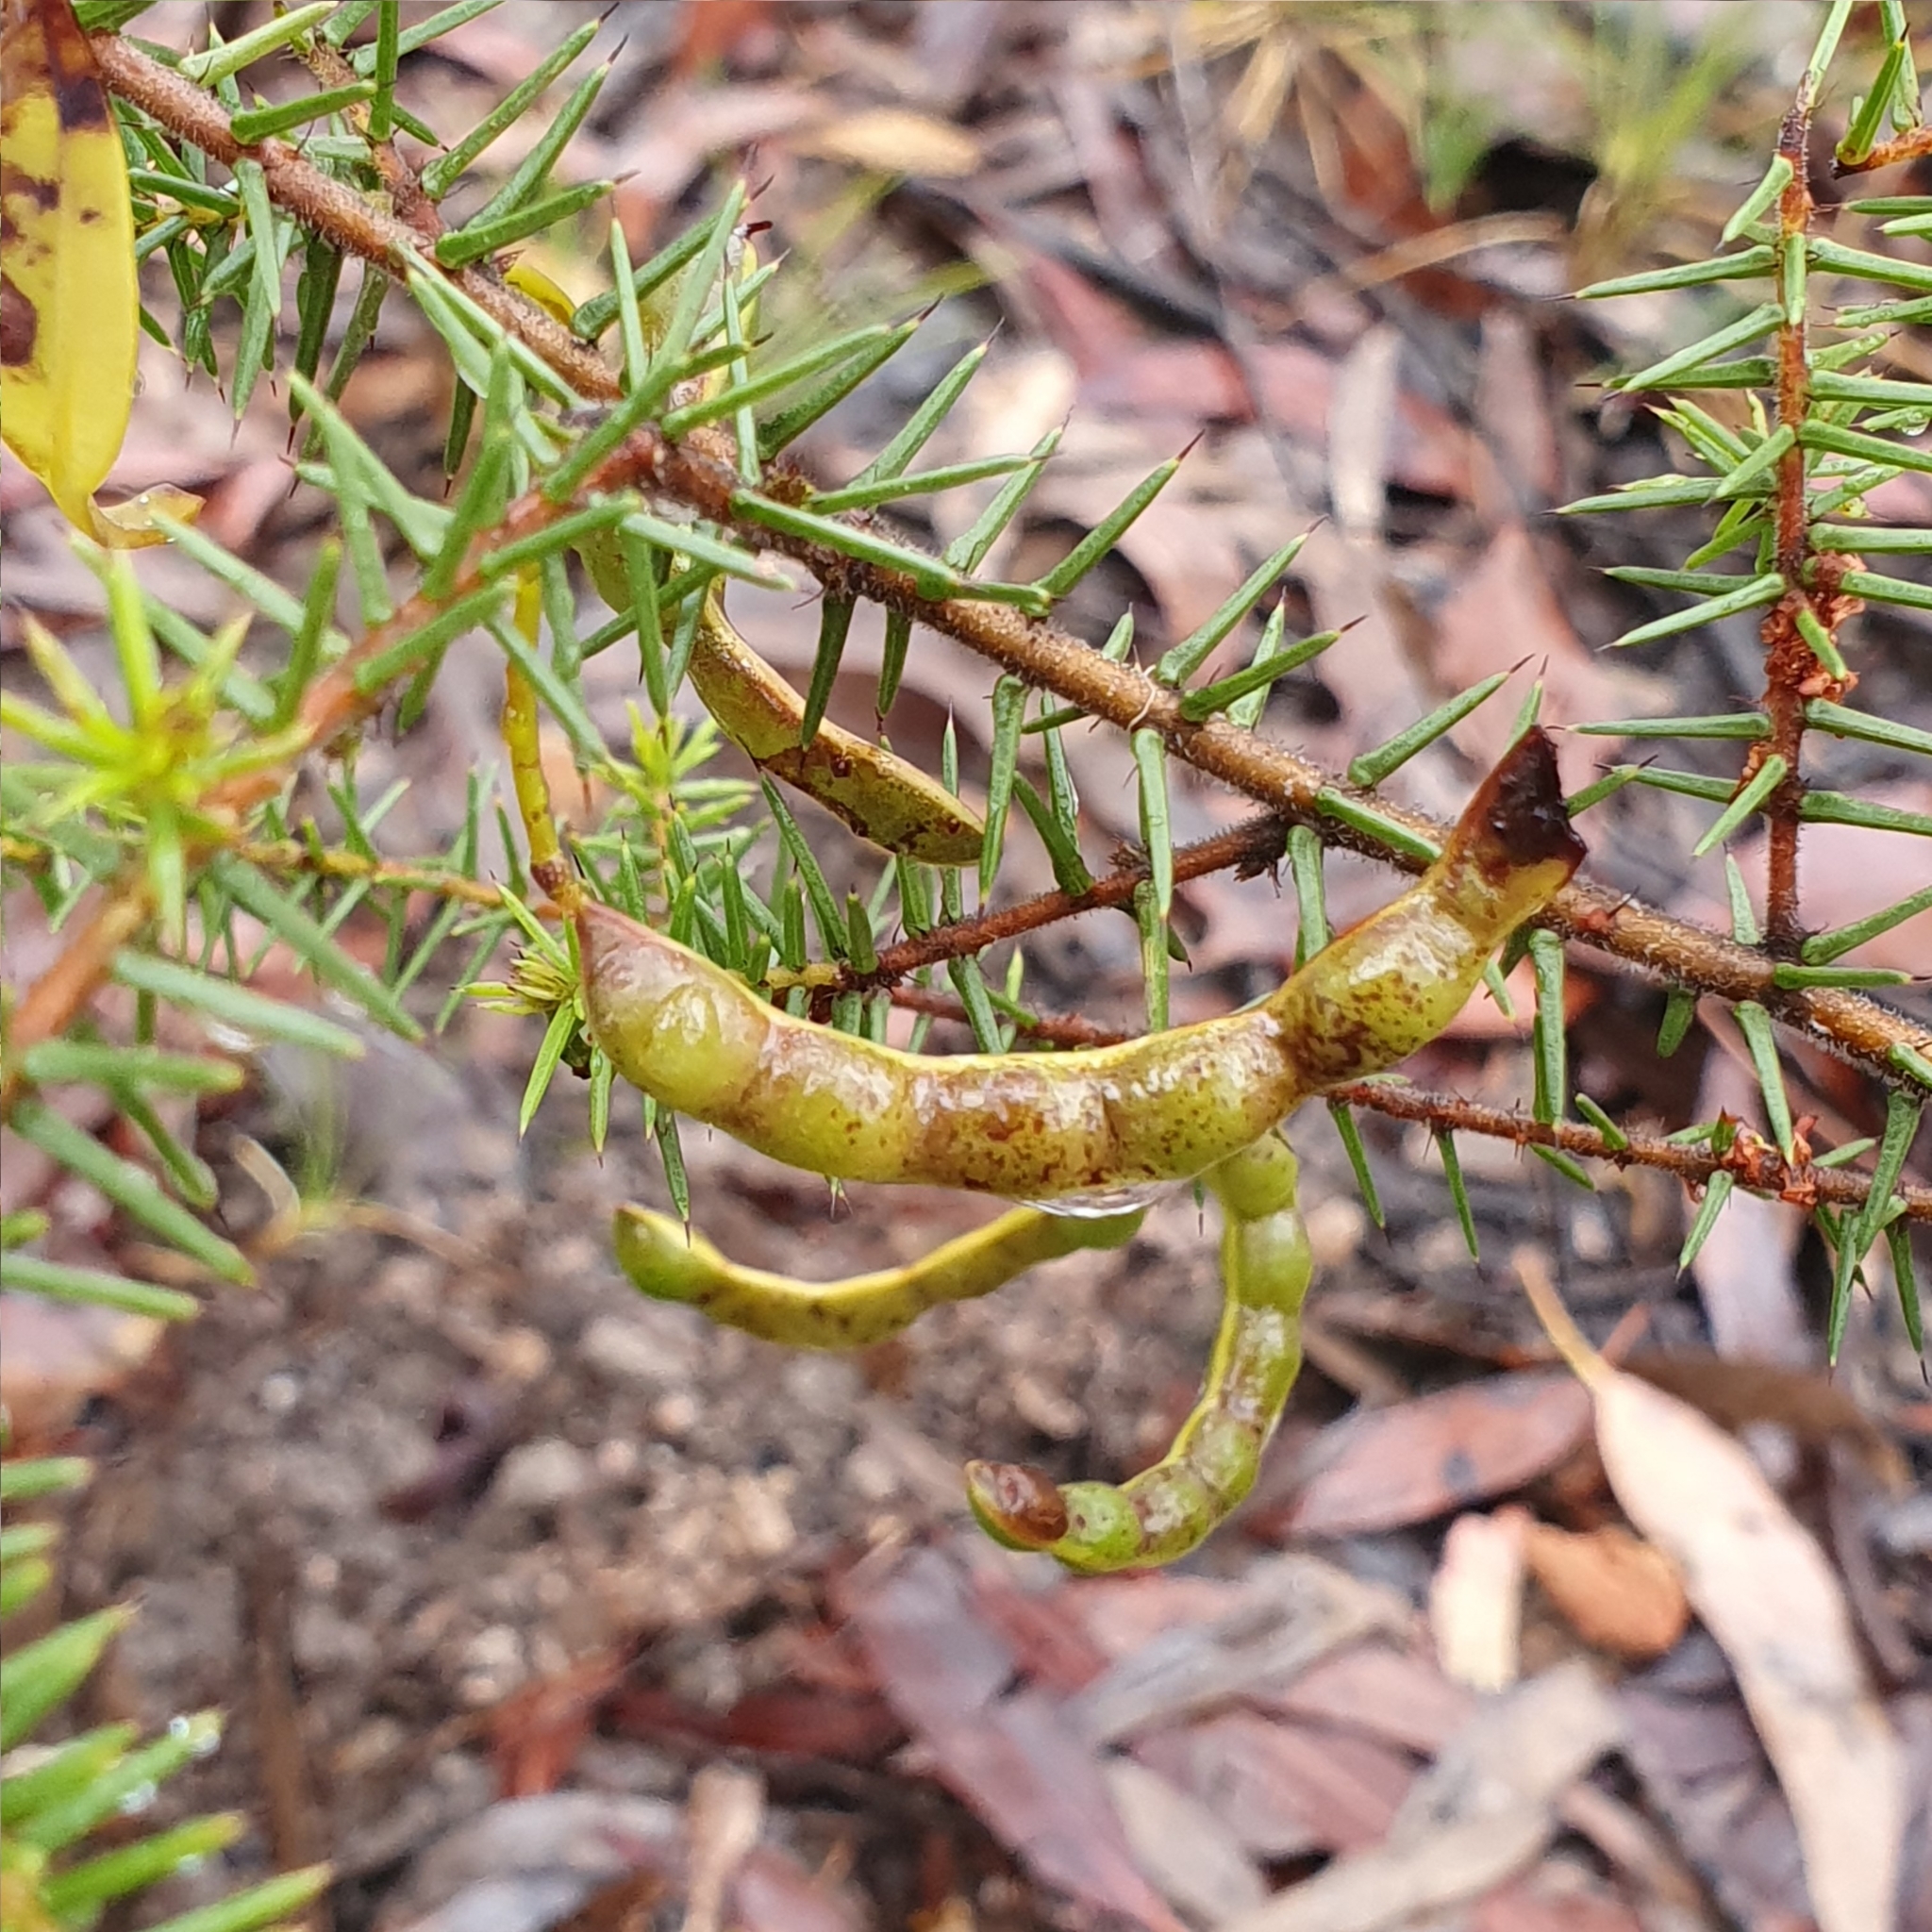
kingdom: Plantae
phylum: Tracheophyta
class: Magnoliopsida
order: Fabales
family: Fabaceae
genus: Acacia
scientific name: Acacia ulicifolia
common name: Juniper wattle
